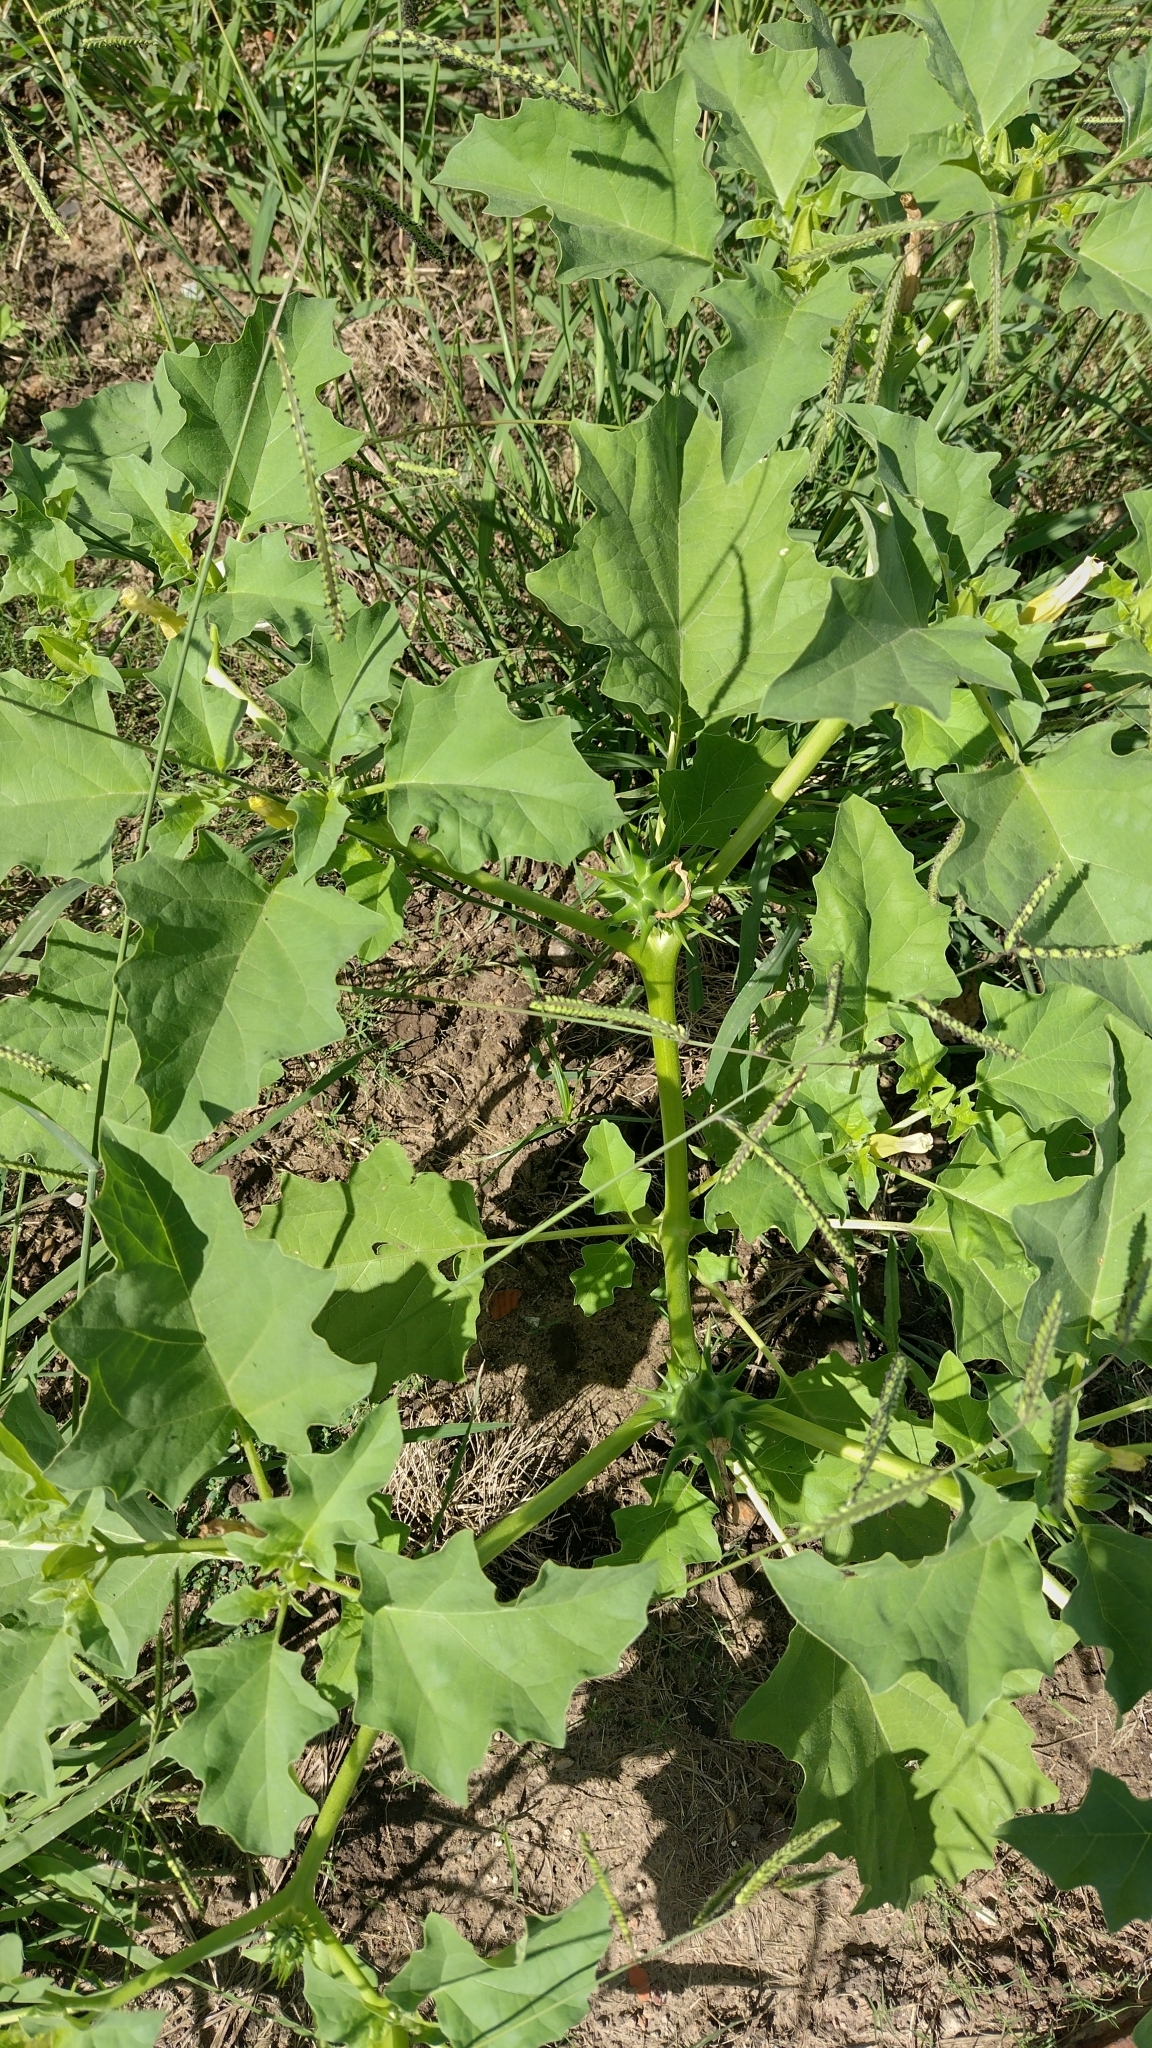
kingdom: Plantae
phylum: Tracheophyta
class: Magnoliopsida
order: Solanales
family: Solanaceae
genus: Datura
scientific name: Datura ferox
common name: Angel's-trumpets
